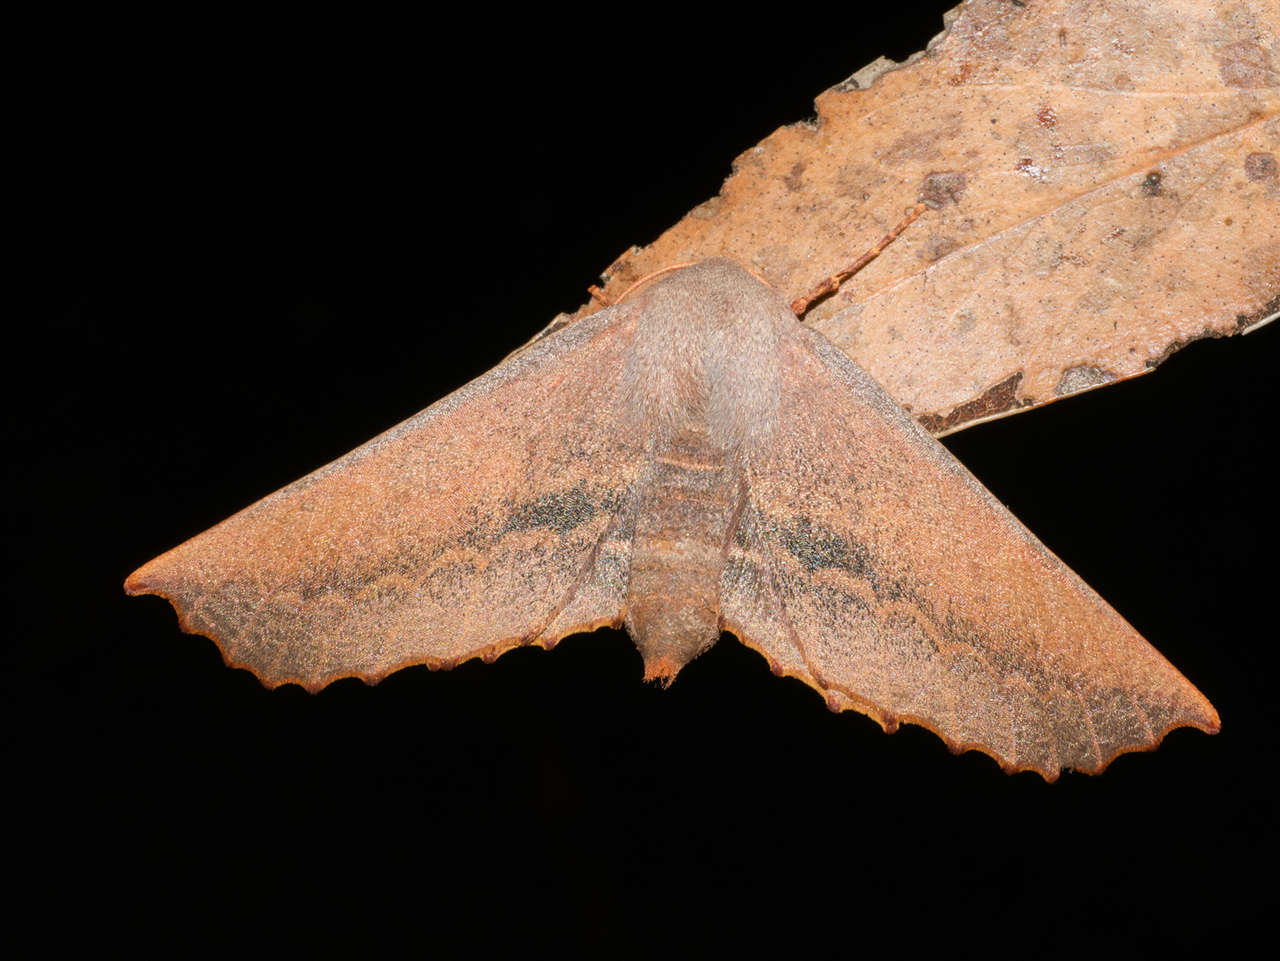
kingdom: Animalia
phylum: Arthropoda
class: Insecta
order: Lepidoptera
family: Geometridae
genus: Monoctenia
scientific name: Monoctenia smerintharia
